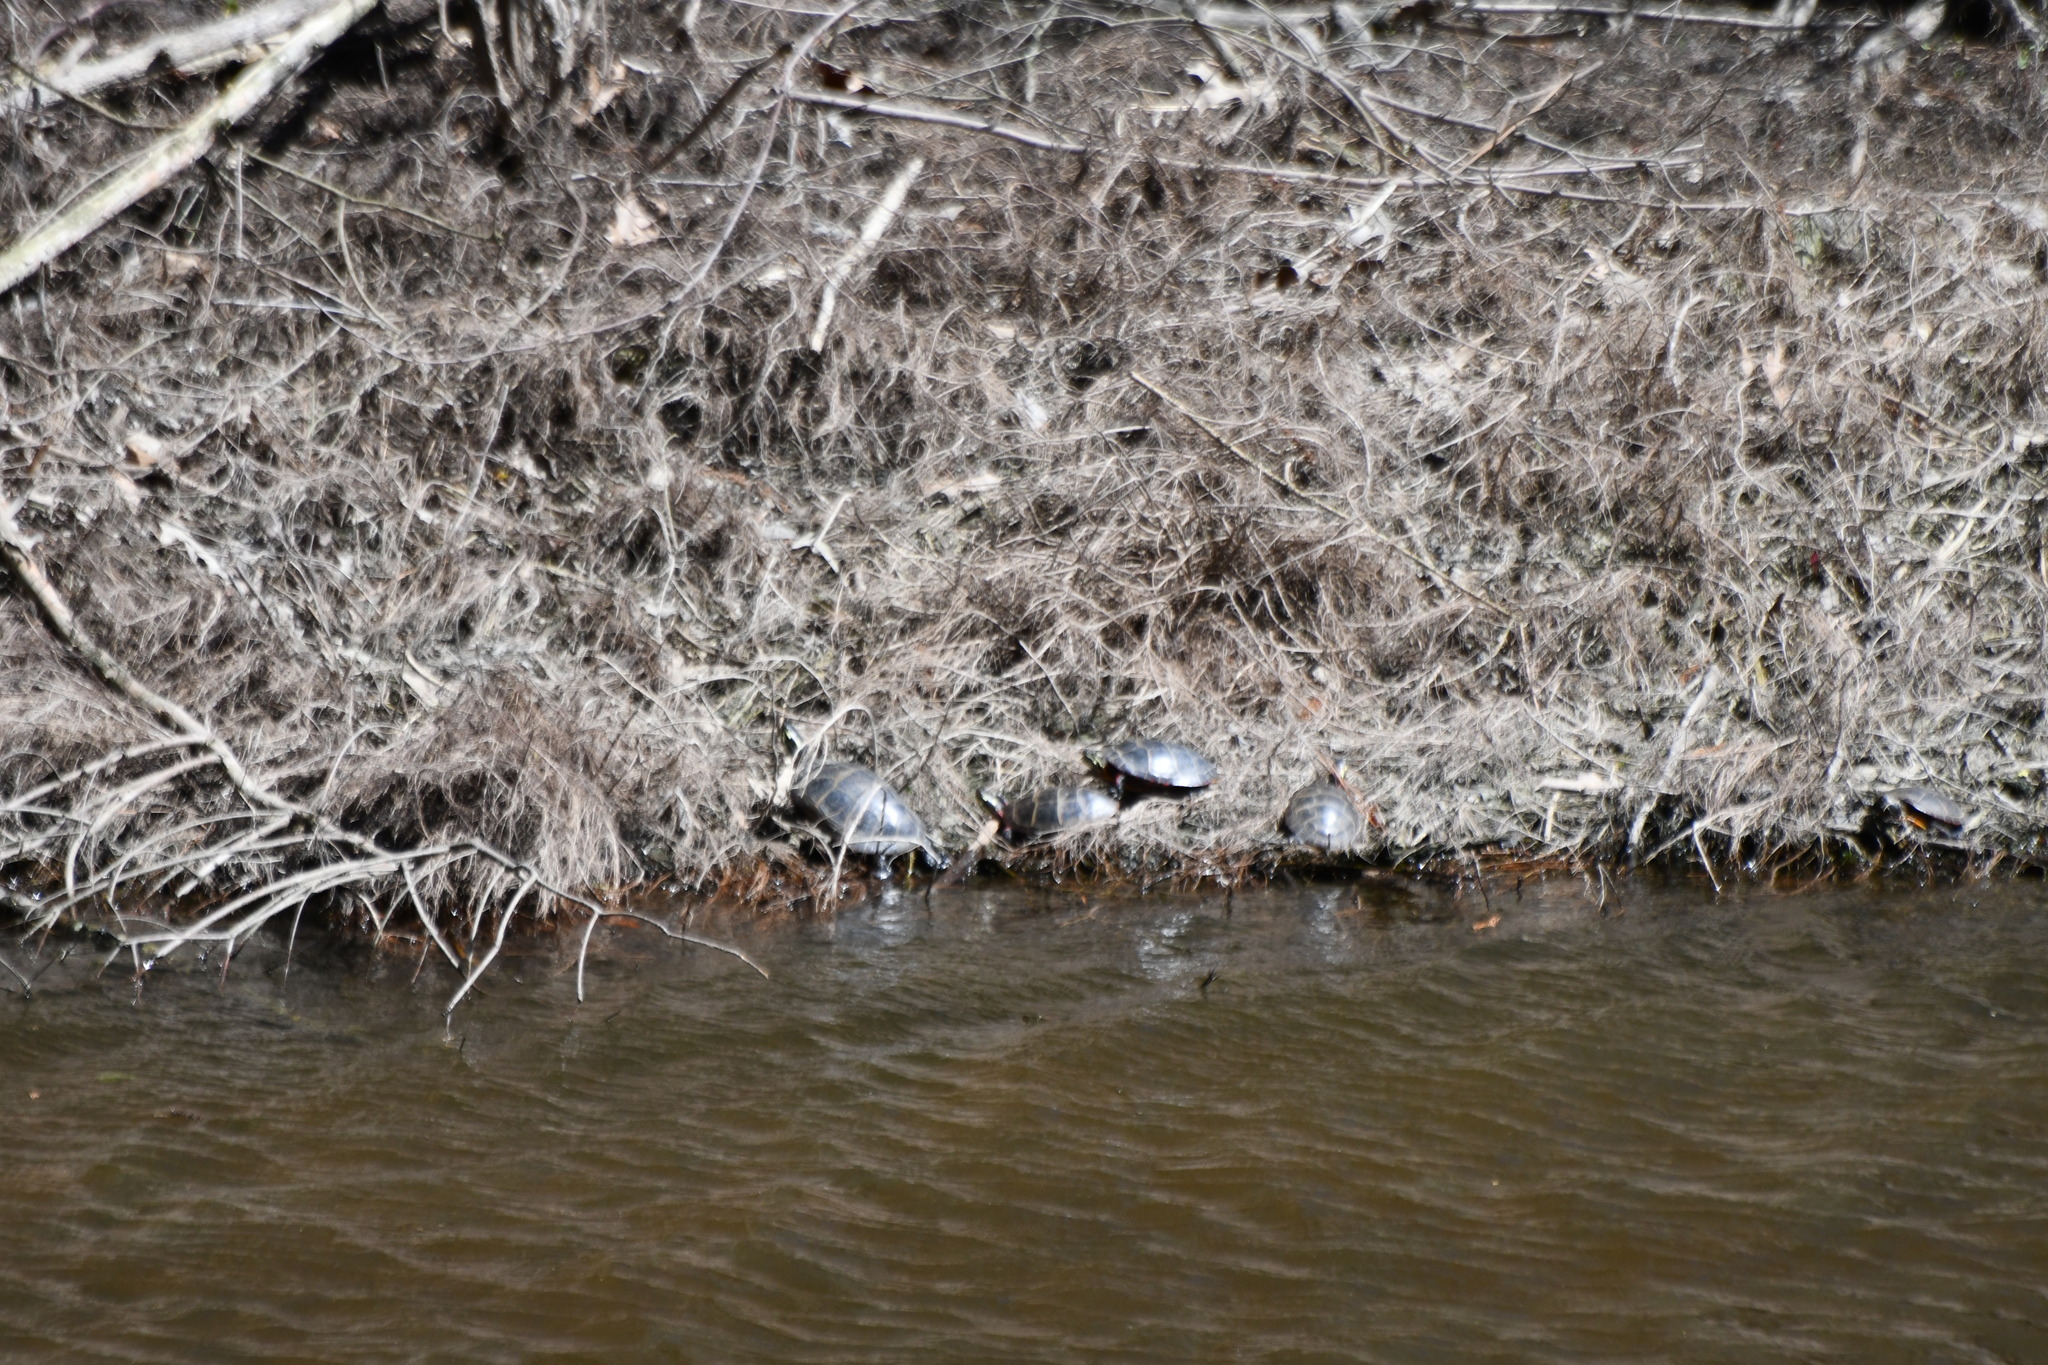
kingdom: Animalia
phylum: Chordata
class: Testudines
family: Emydidae
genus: Chrysemys
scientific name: Chrysemys picta
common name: Painted turtle
